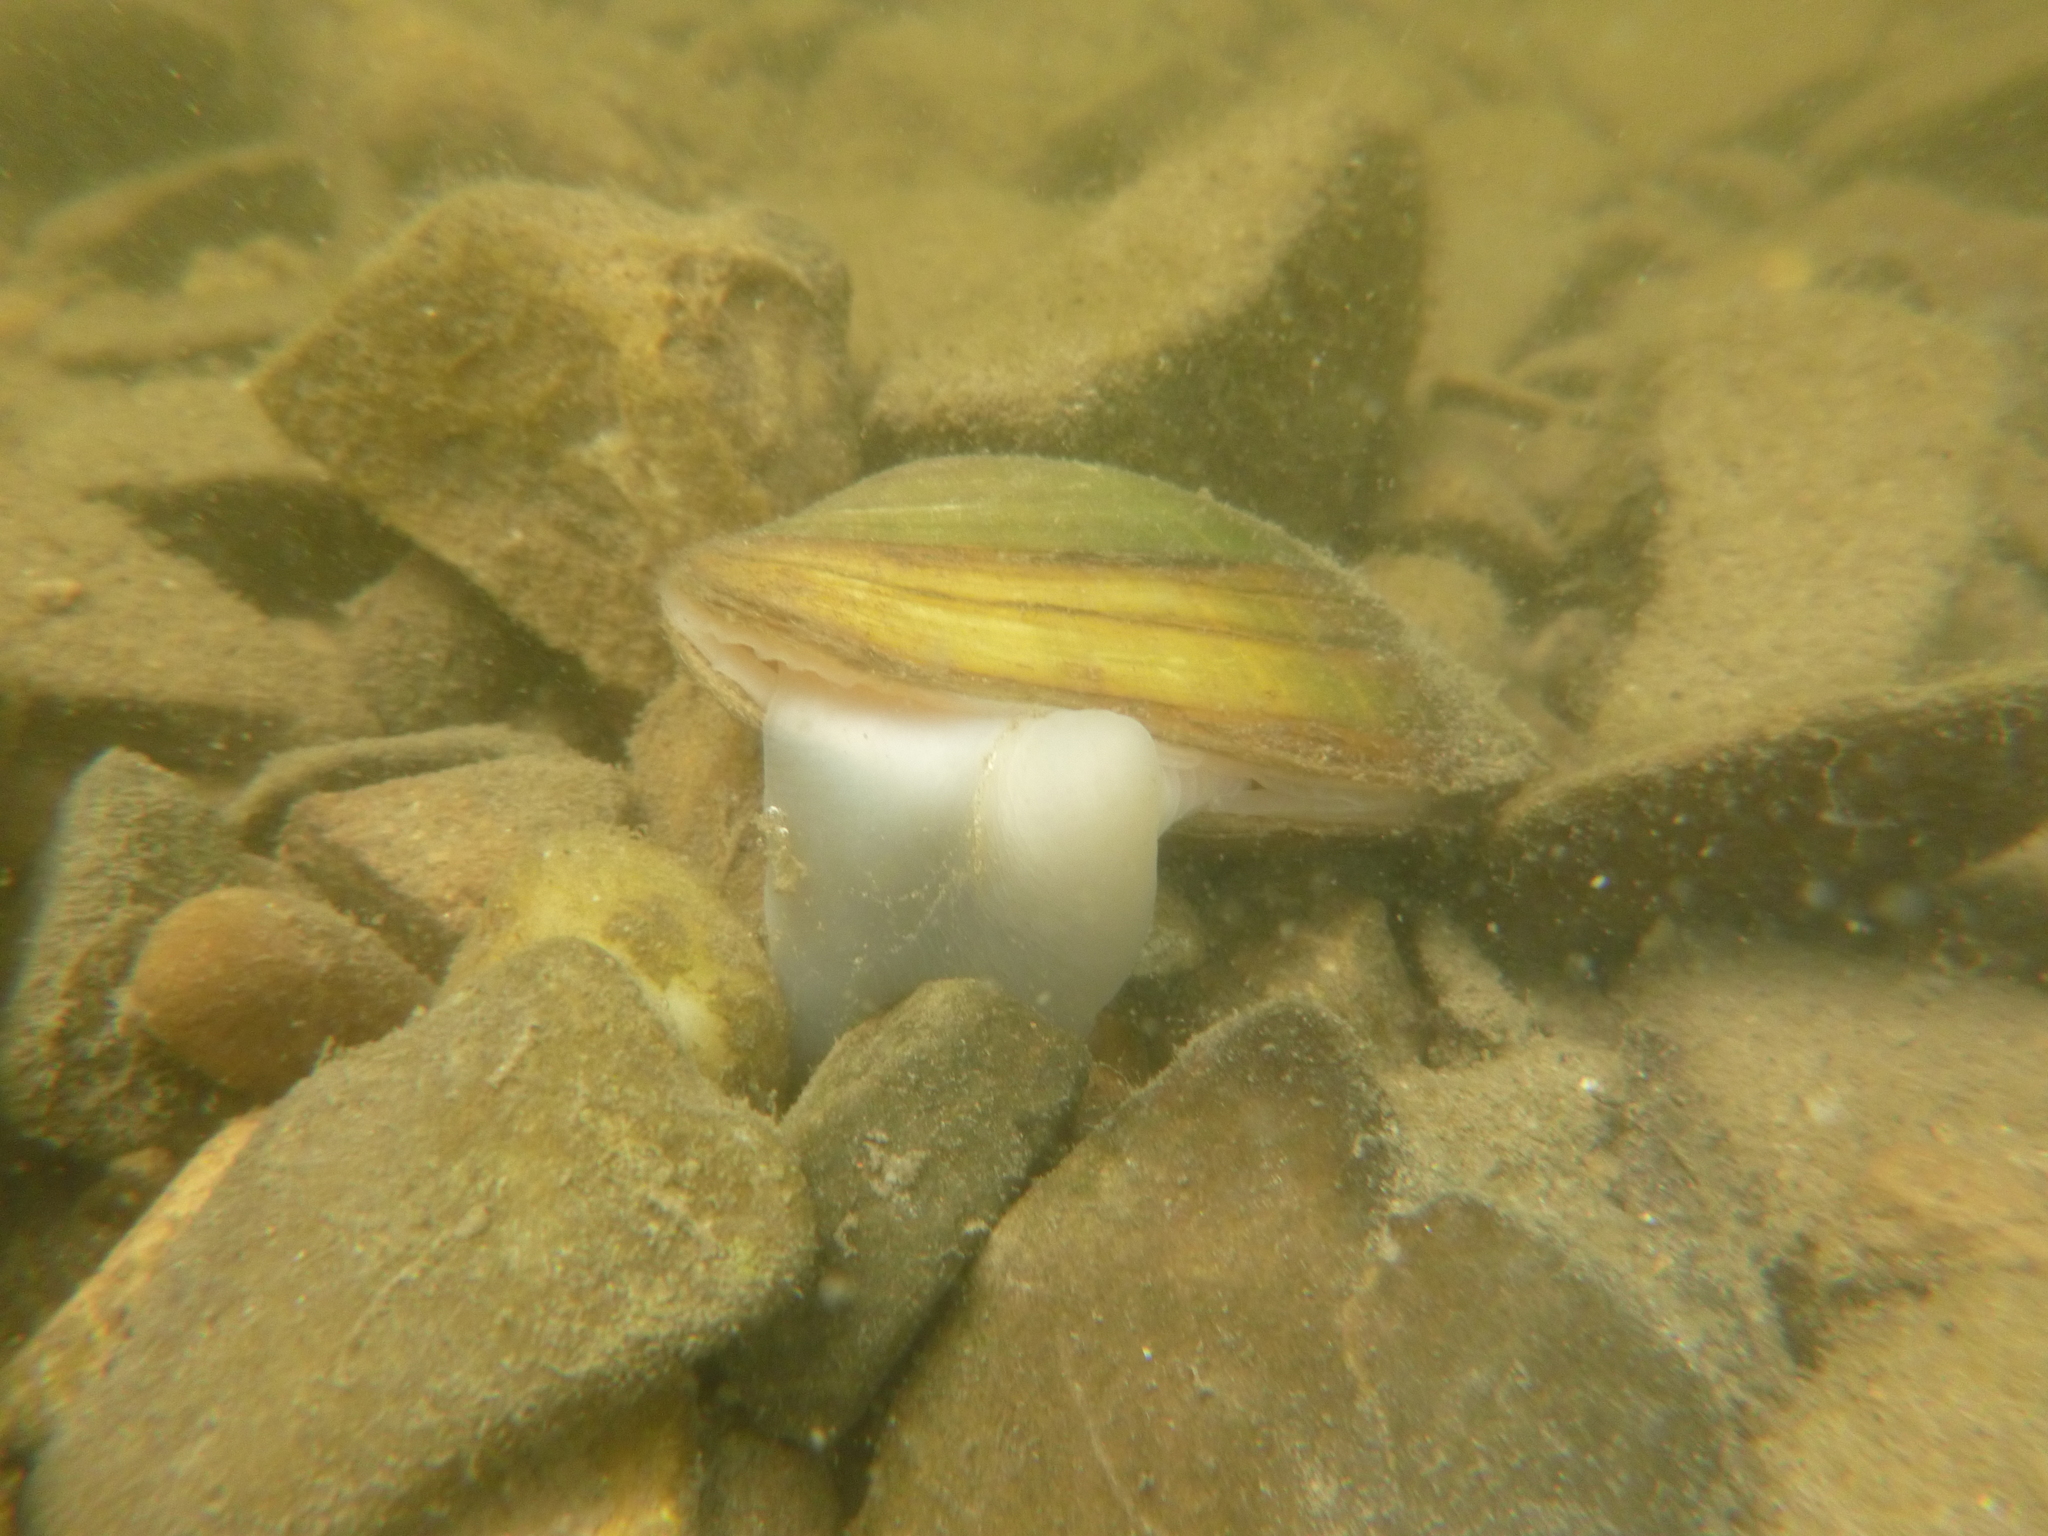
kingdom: Animalia
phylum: Mollusca
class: Bivalvia
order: Unionida
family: Unionidae
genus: Unio
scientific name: Unio crassus
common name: Thick shelled river mussel
